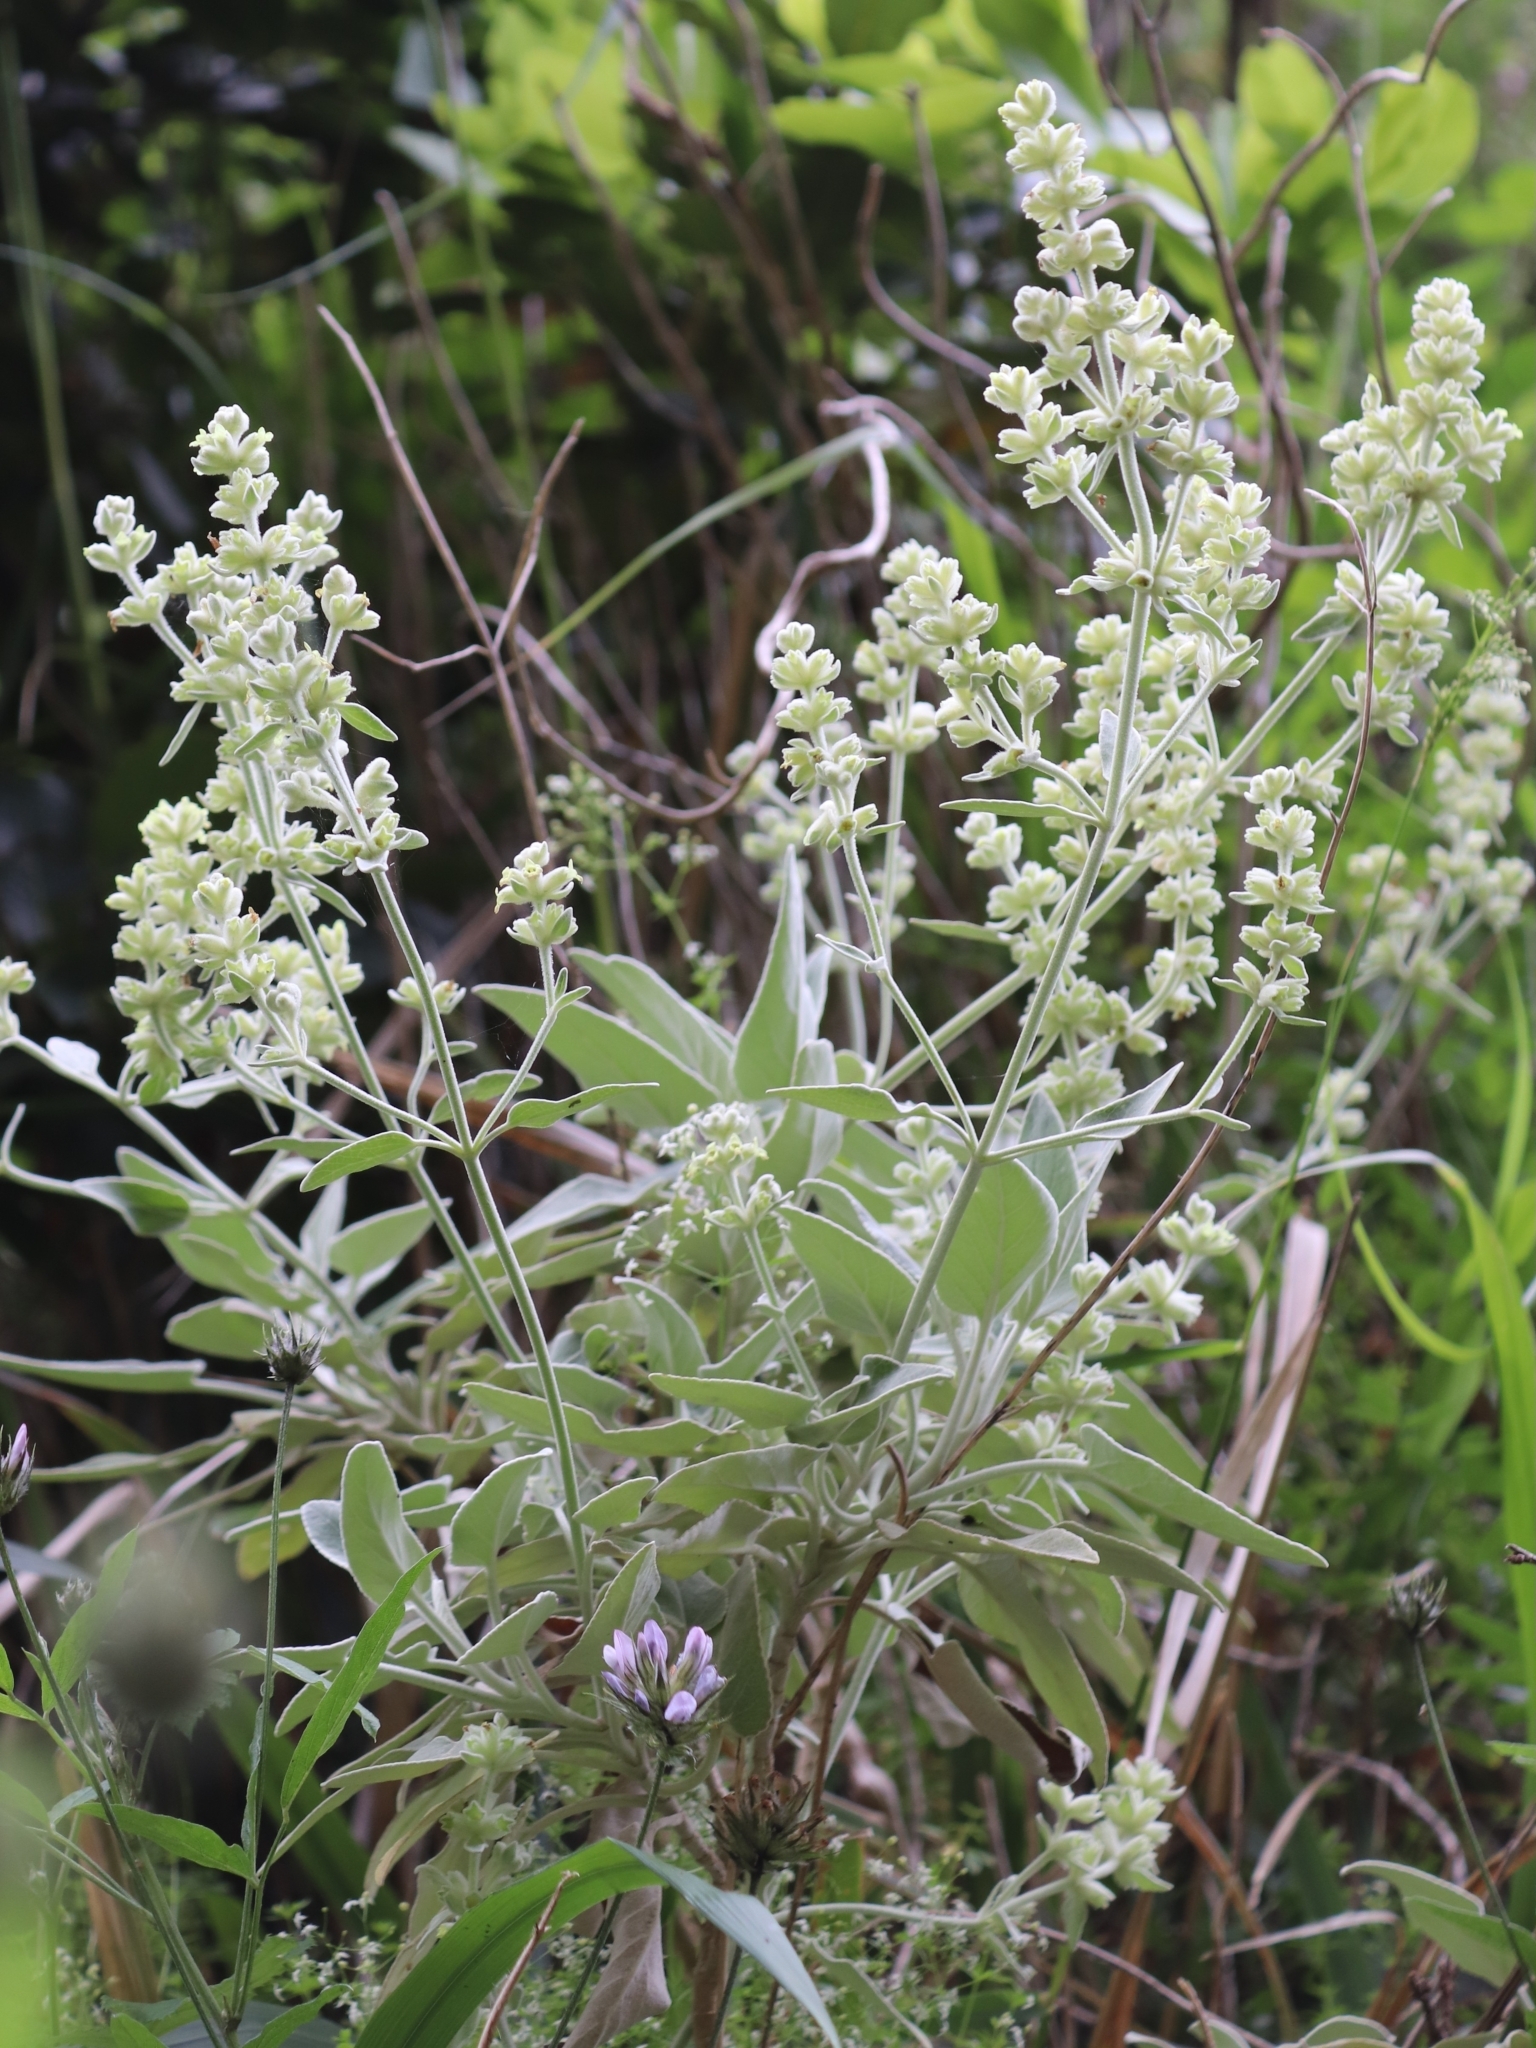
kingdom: Plantae
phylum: Tracheophyta
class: Magnoliopsida
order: Lamiales
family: Lamiaceae
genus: Sideritis
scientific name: Sideritis candicans
